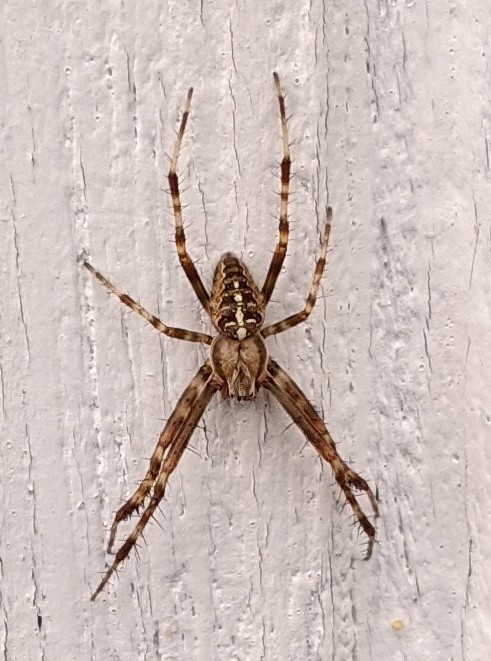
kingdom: Animalia
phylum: Arthropoda
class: Arachnida
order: Araneae
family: Araneidae
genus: Araneus
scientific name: Araneus diadematus
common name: Cross orbweaver
